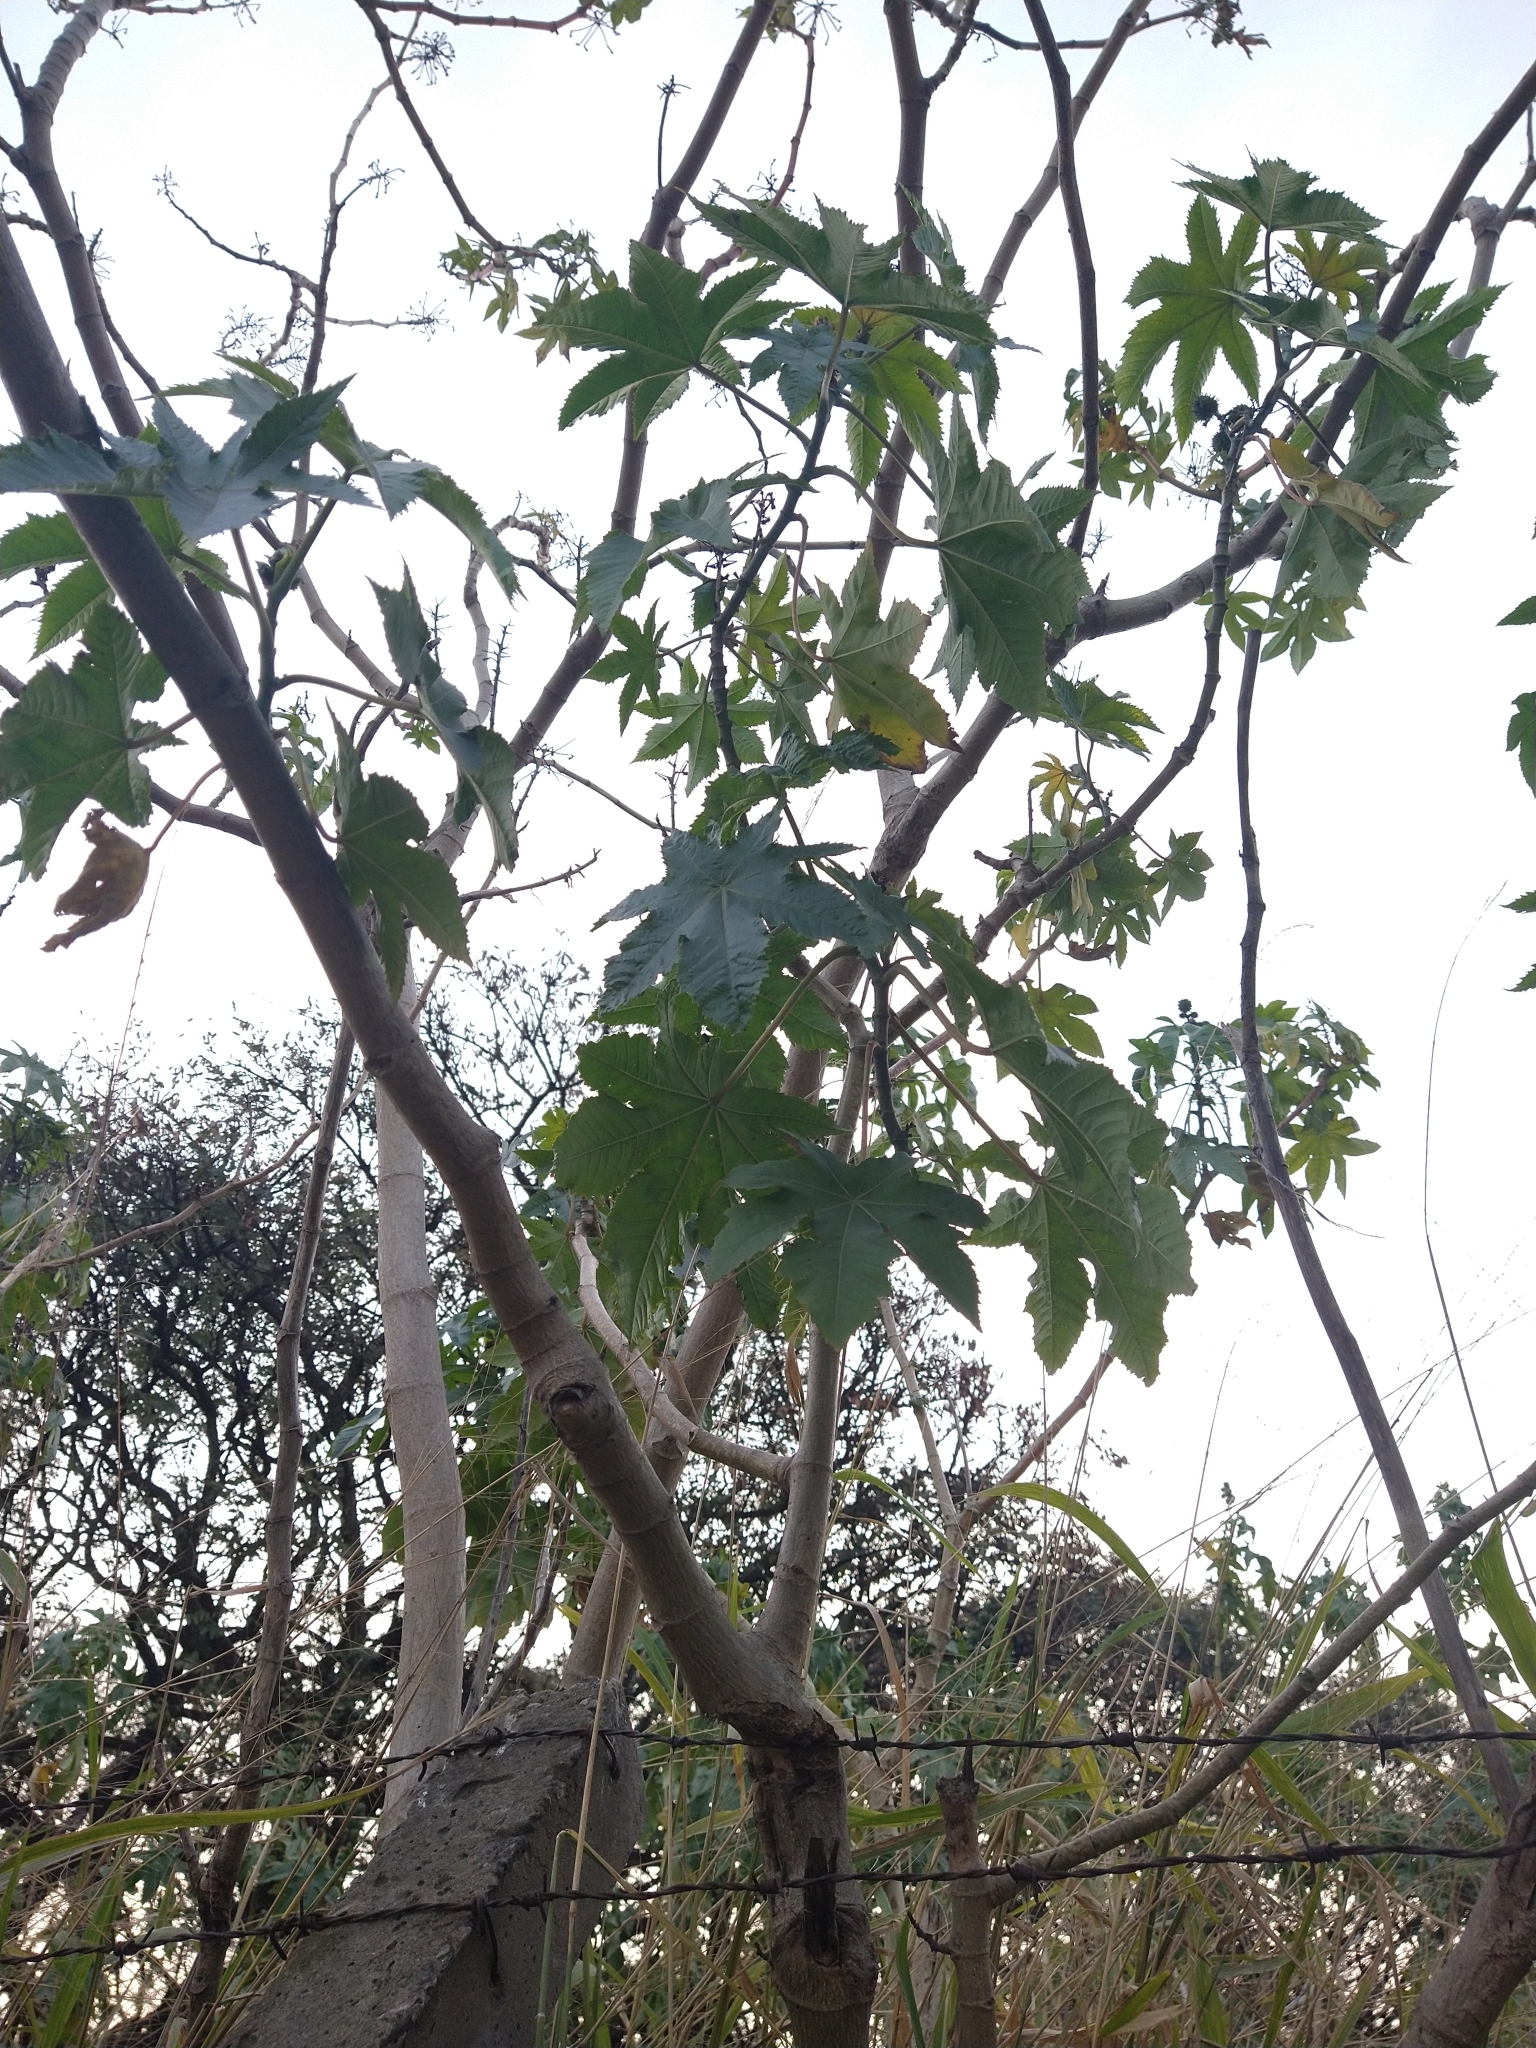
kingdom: Plantae
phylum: Tracheophyta
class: Magnoliopsida
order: Malpighiales
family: Euphorbiaceae
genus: Ricinus
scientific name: Ricinus communis
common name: Castor-oil-plant
